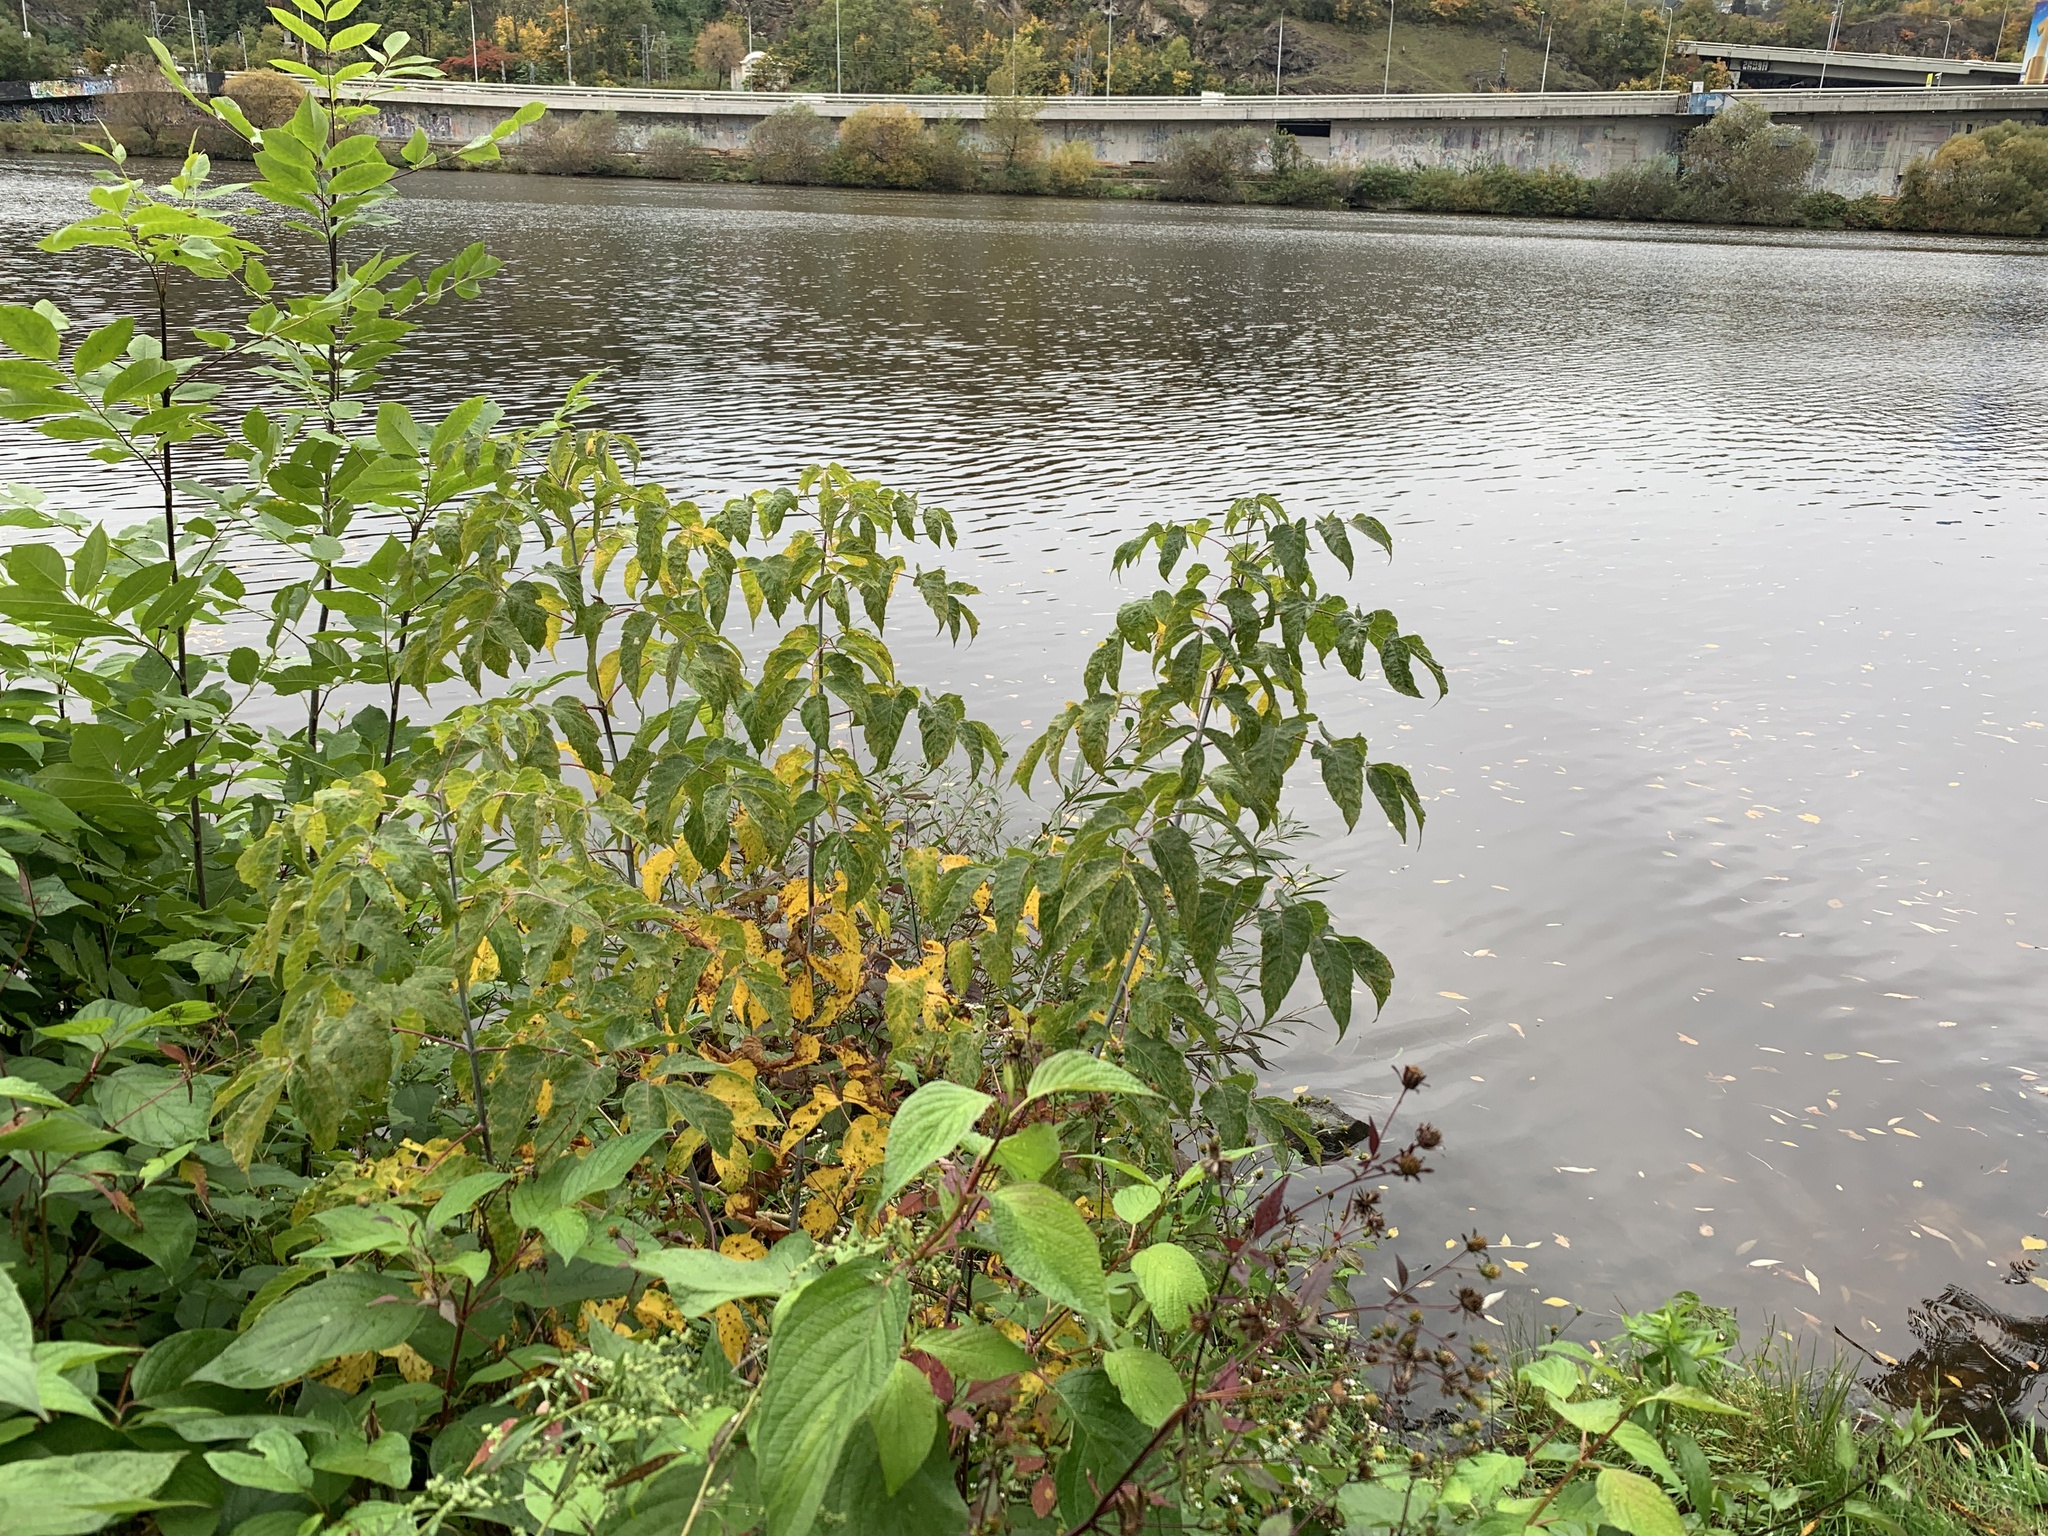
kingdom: Plantae
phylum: Tracheophyta
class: Magnoliopsida
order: Sapindales
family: Sapindaceae
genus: Acer
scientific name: Acer negundo
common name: Ashleaf maple
